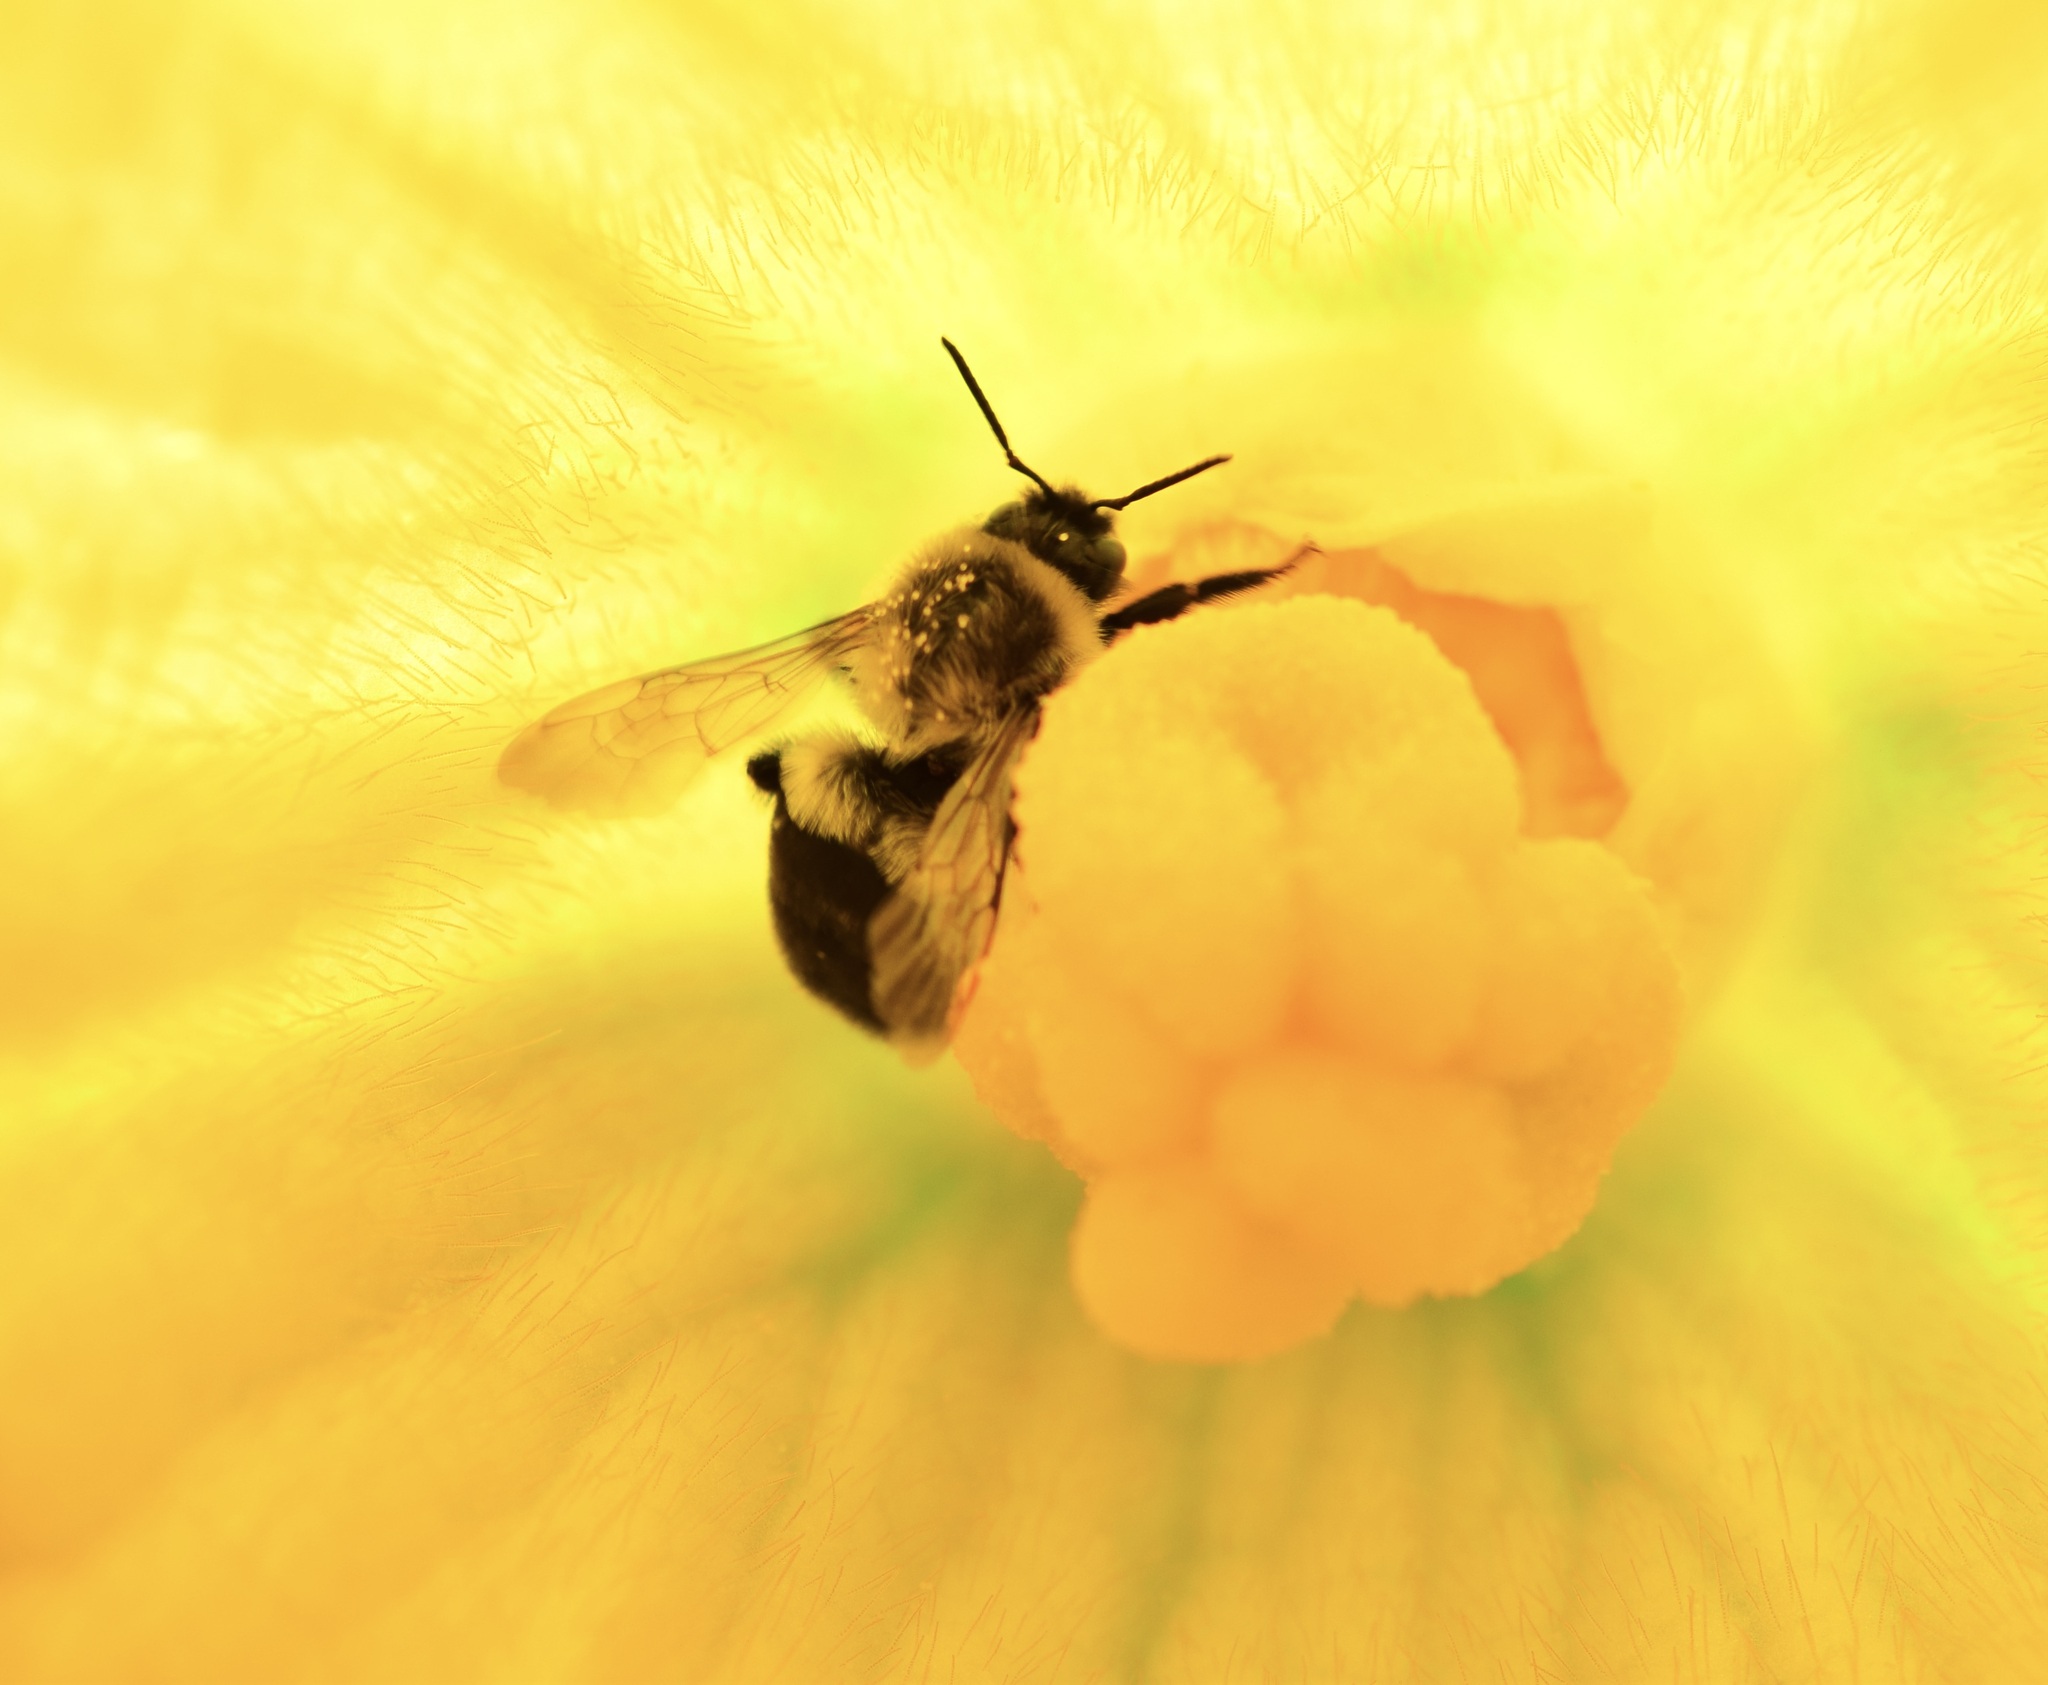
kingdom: Animalia
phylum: Arthropoda
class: Insecta
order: Hymenoptera
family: Apidae
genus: Bombus
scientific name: Bombus impatiens
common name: Common eastern bumble bee
